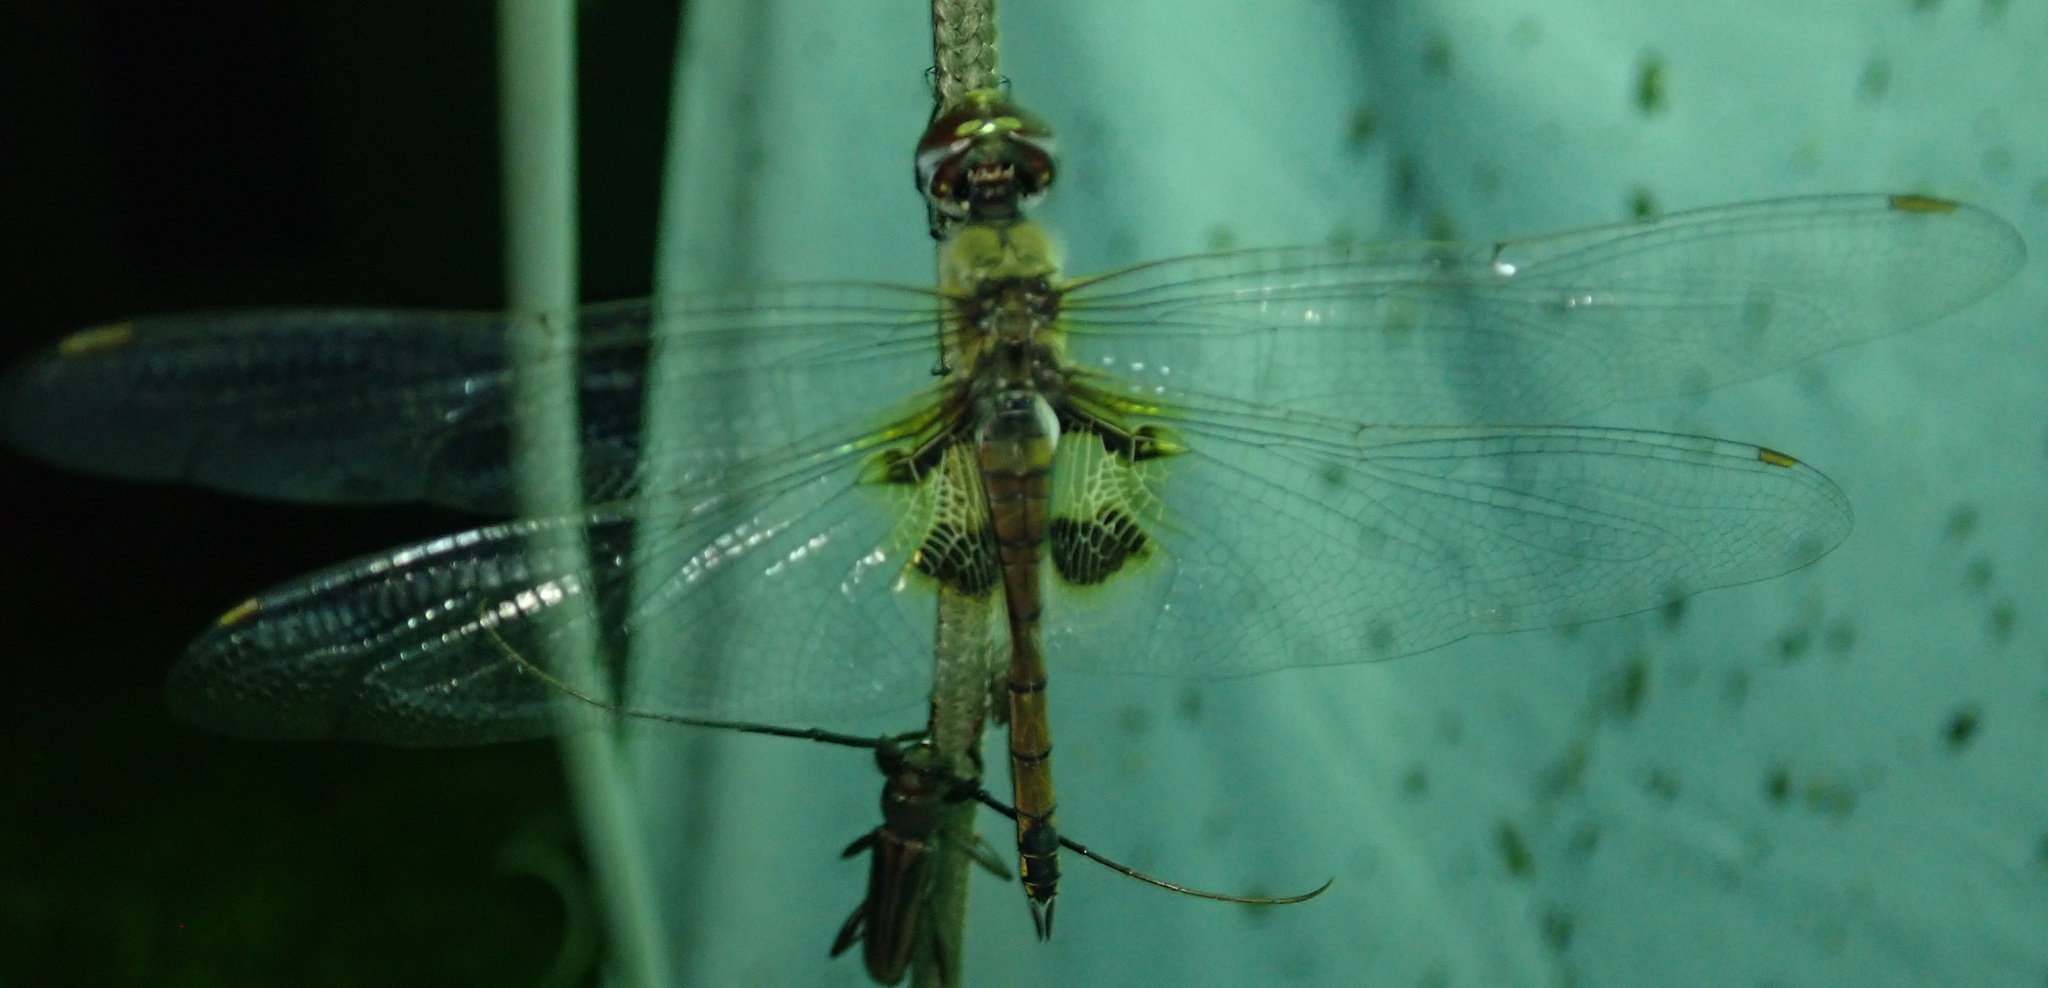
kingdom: Animalia
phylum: Arthropoda
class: Insecta
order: Odonata
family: Libellulidae
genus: Tramea
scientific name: Tramea basilaris
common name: Keyhole glider
